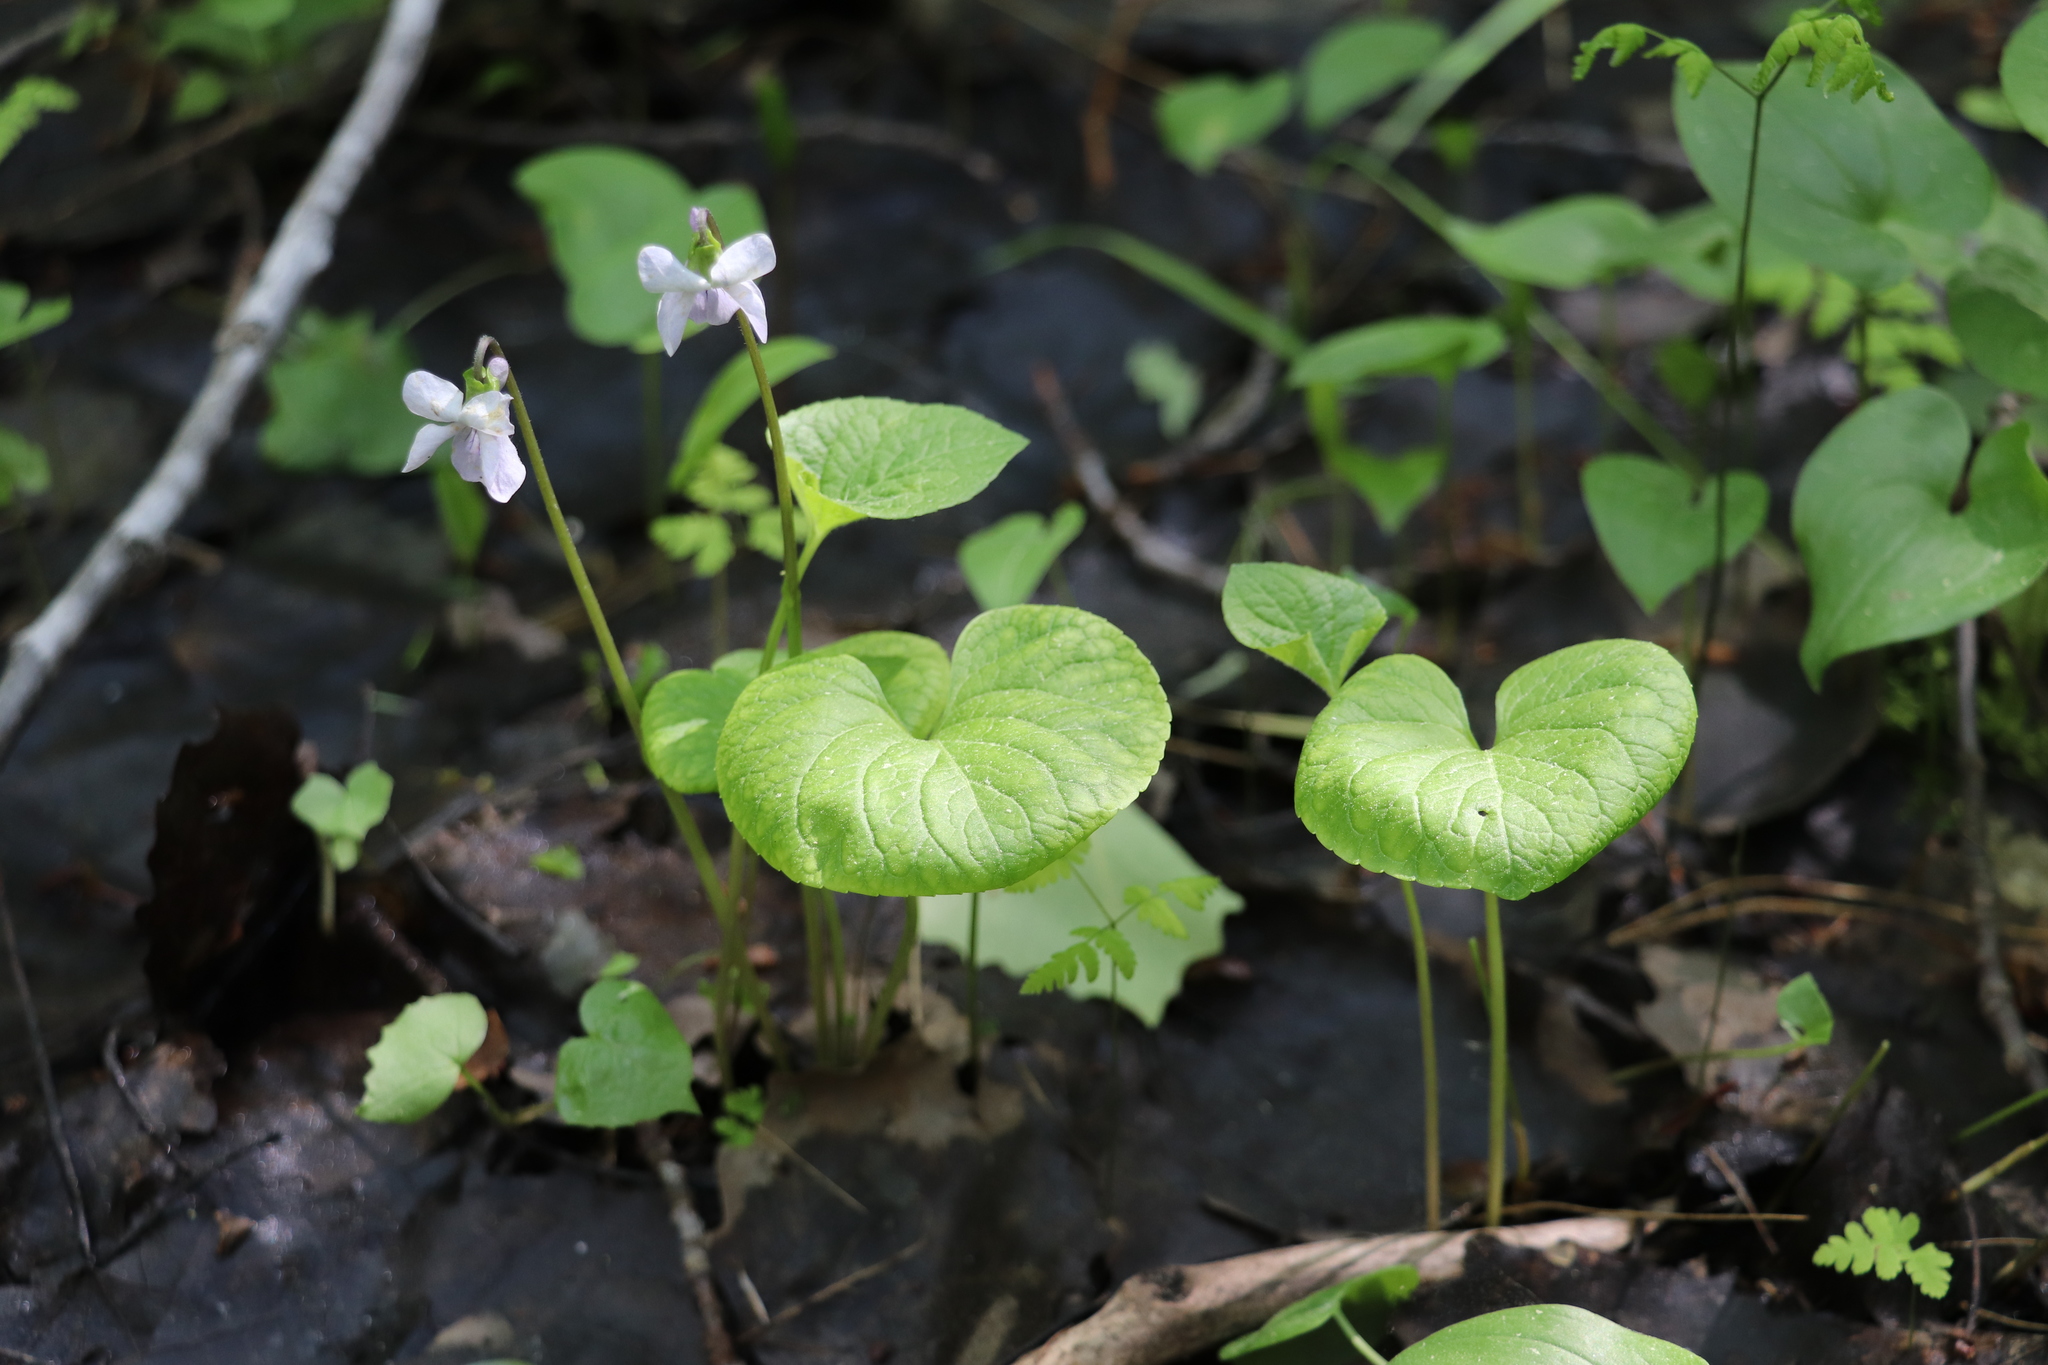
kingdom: Plantae
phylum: Tracheophyta
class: Magnoliopsida
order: Malpighiales
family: Violaceae
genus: Viola
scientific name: Viola epipsila
